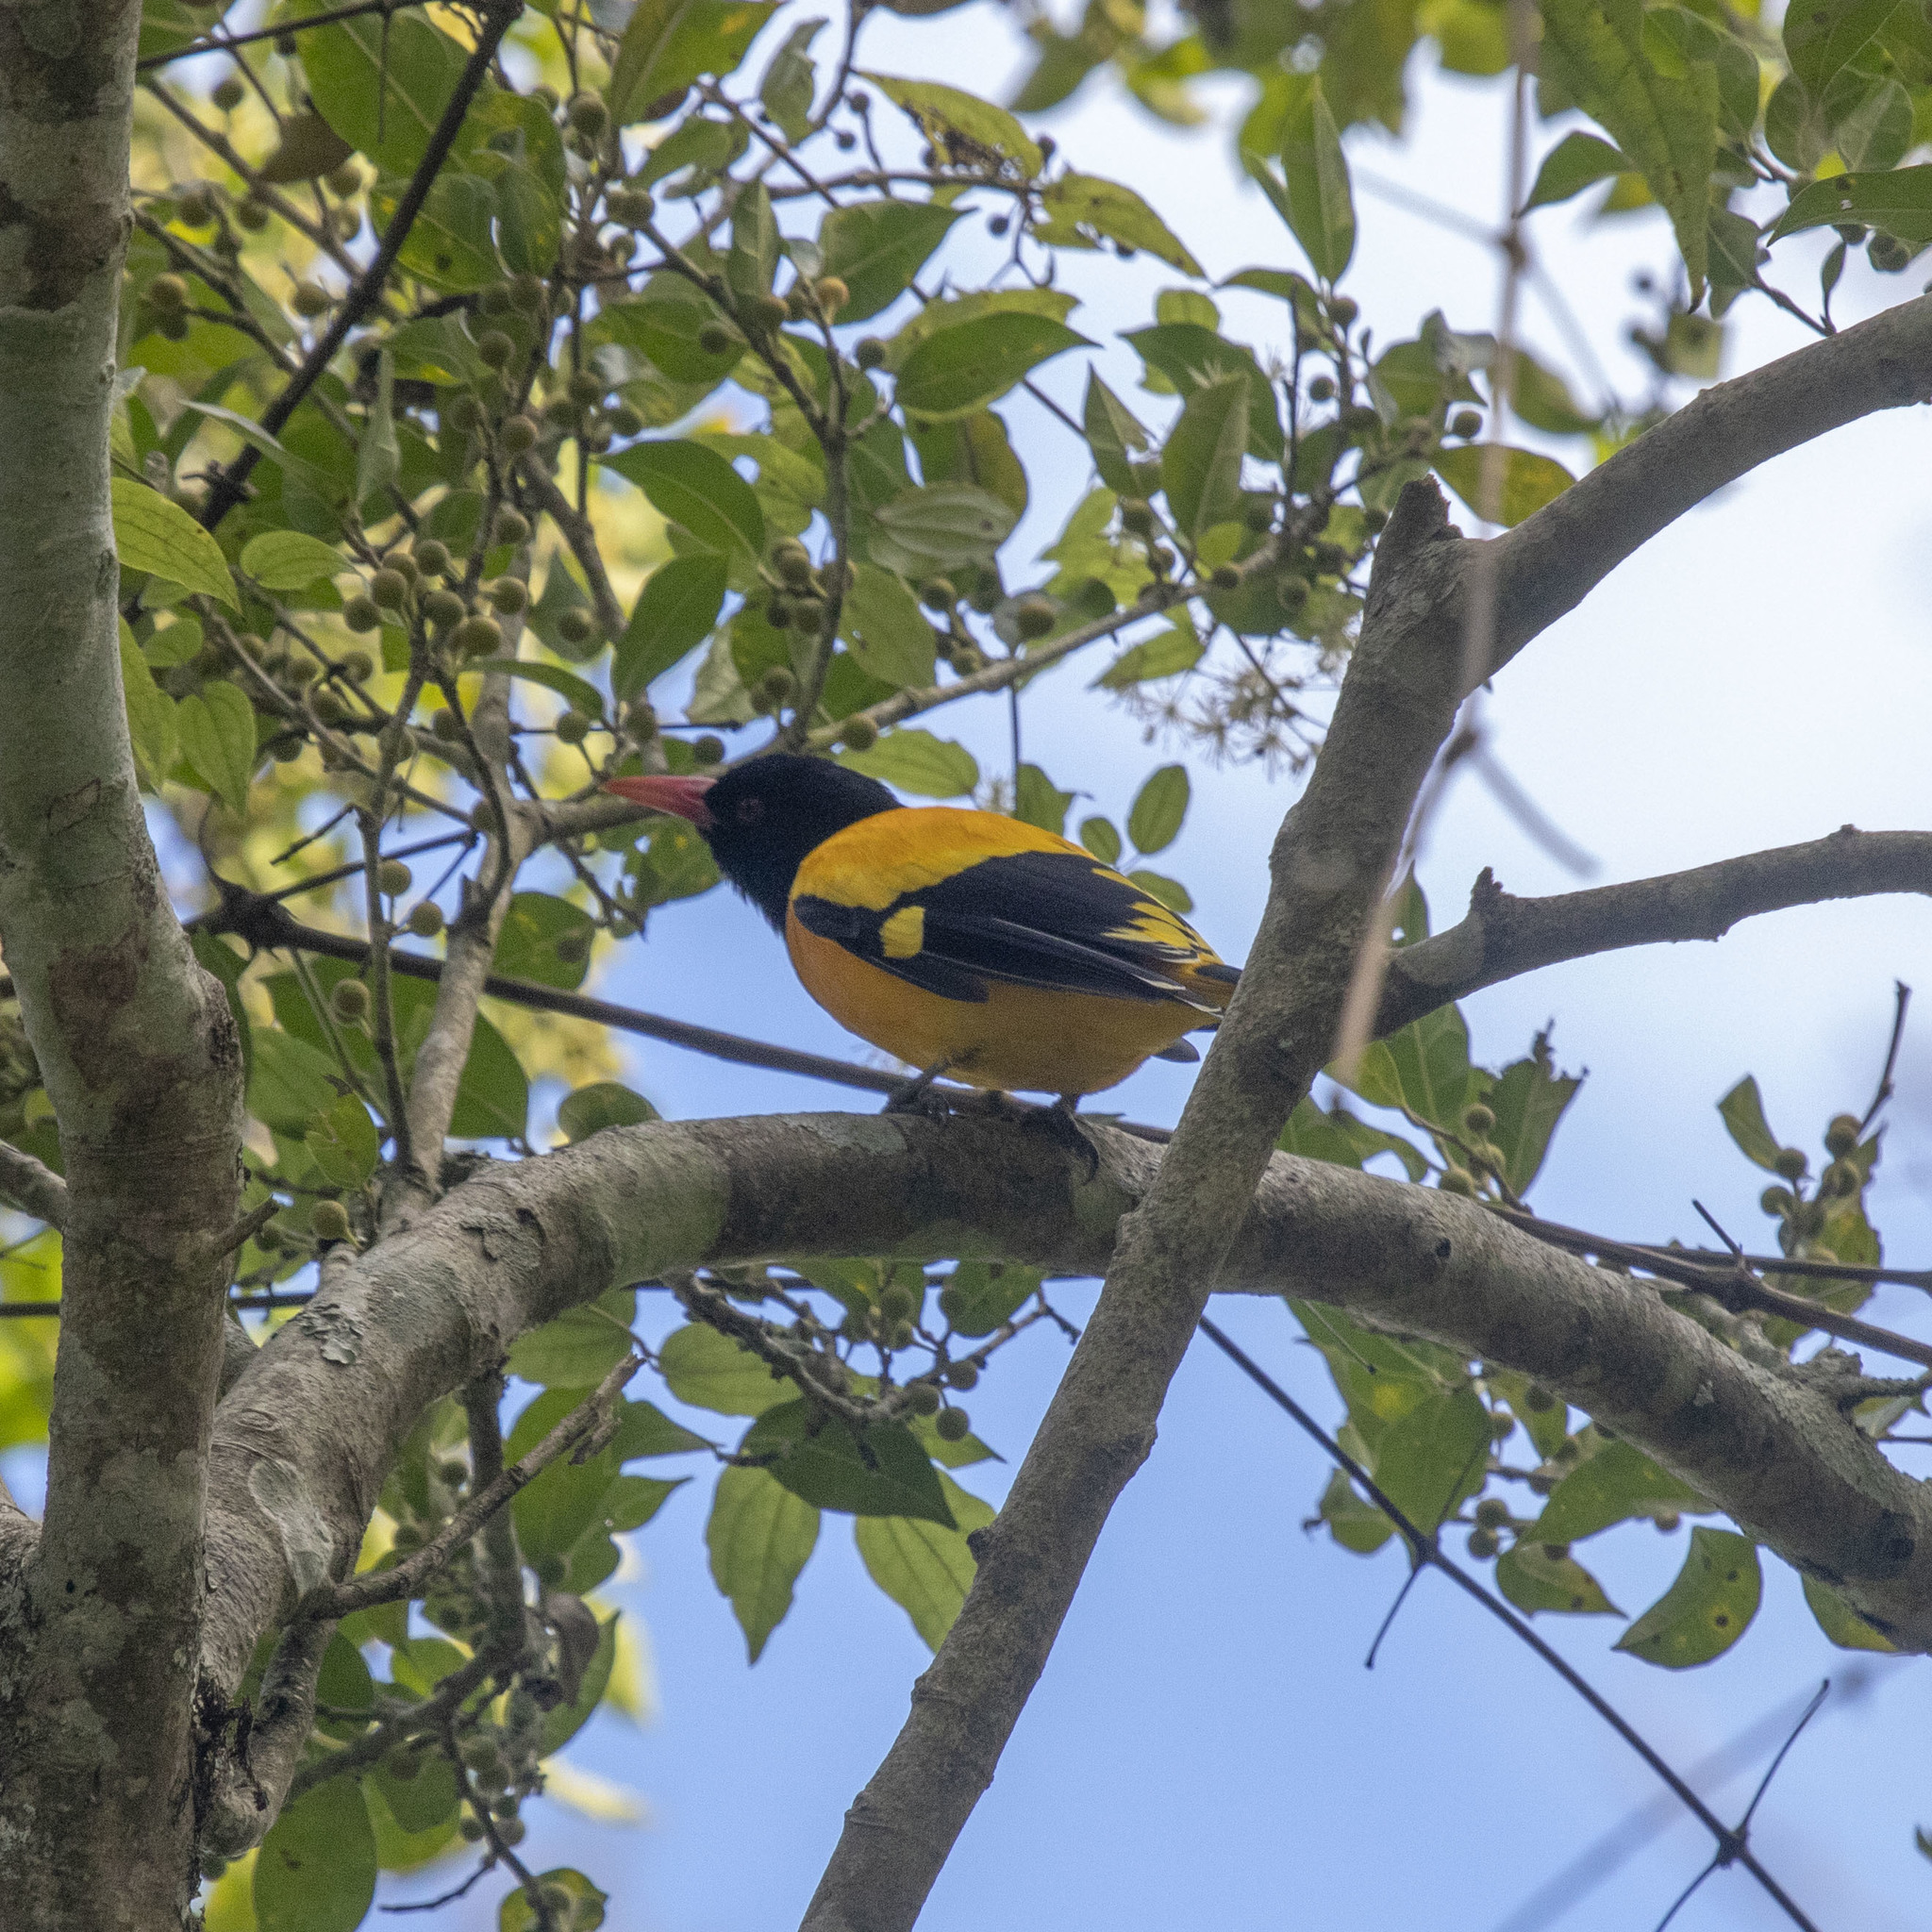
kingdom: Animalia
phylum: Chordata
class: Aves
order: Passeriformes
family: Oriolidae
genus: Oriolus
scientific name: Oriolus xanthornus
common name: Black-hooded oriole
